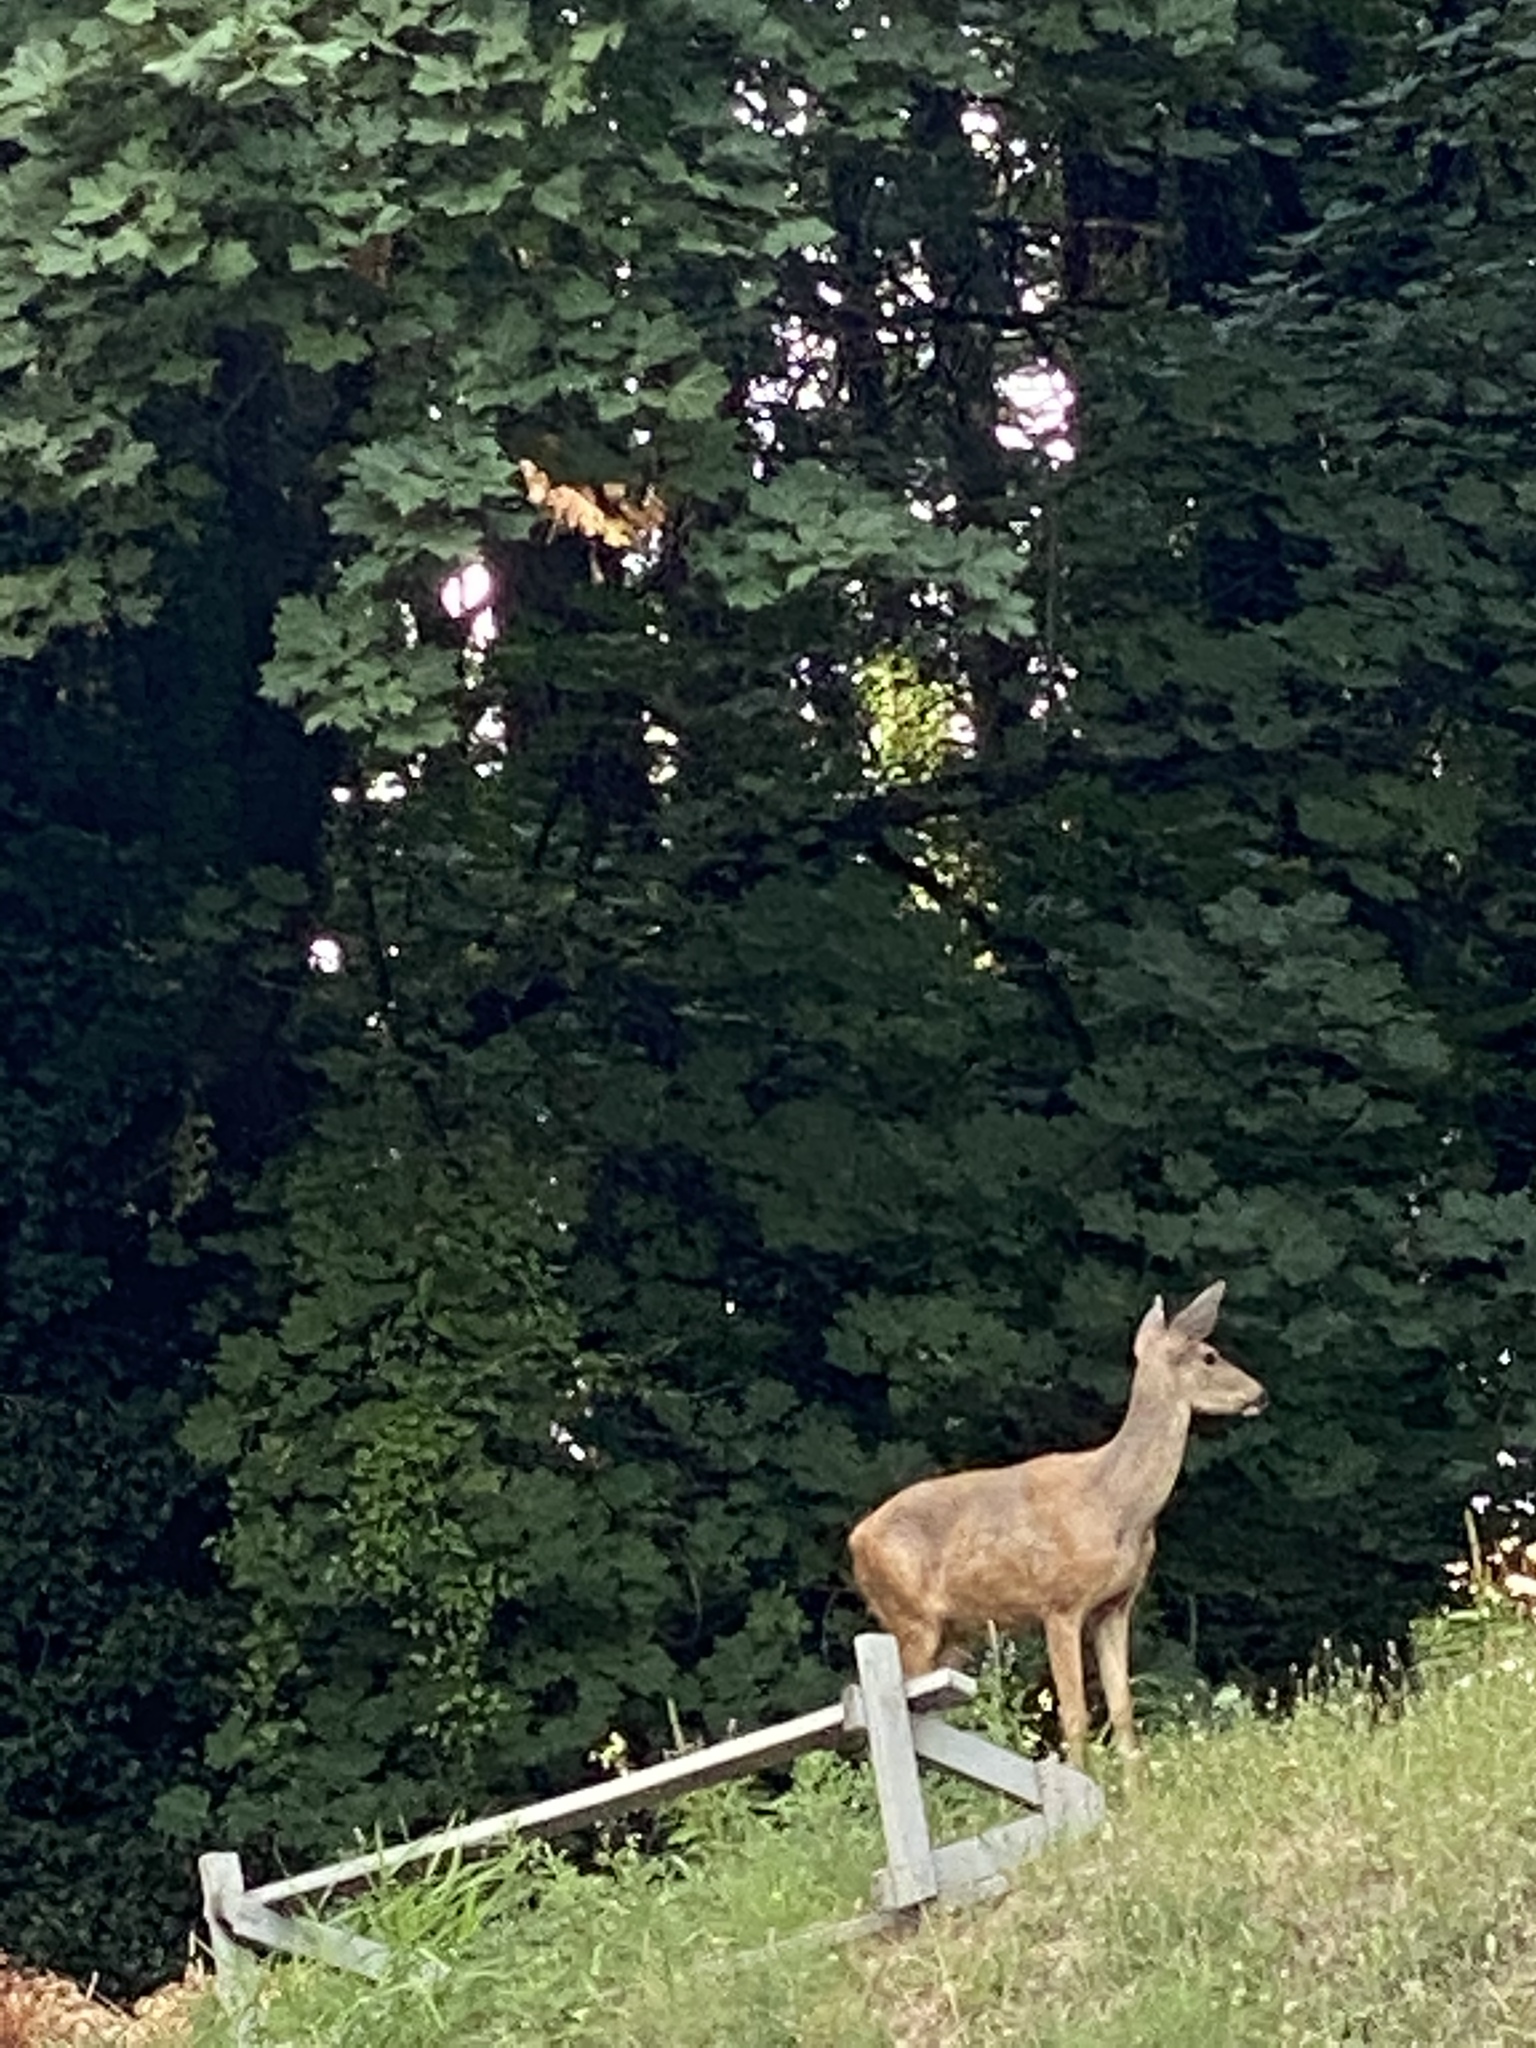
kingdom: Animalia
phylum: Chordata
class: Mammalia
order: Artiodactyla
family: Cervidae
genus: Odocoileus
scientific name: Odocoileus hemionus
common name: Mule deer
